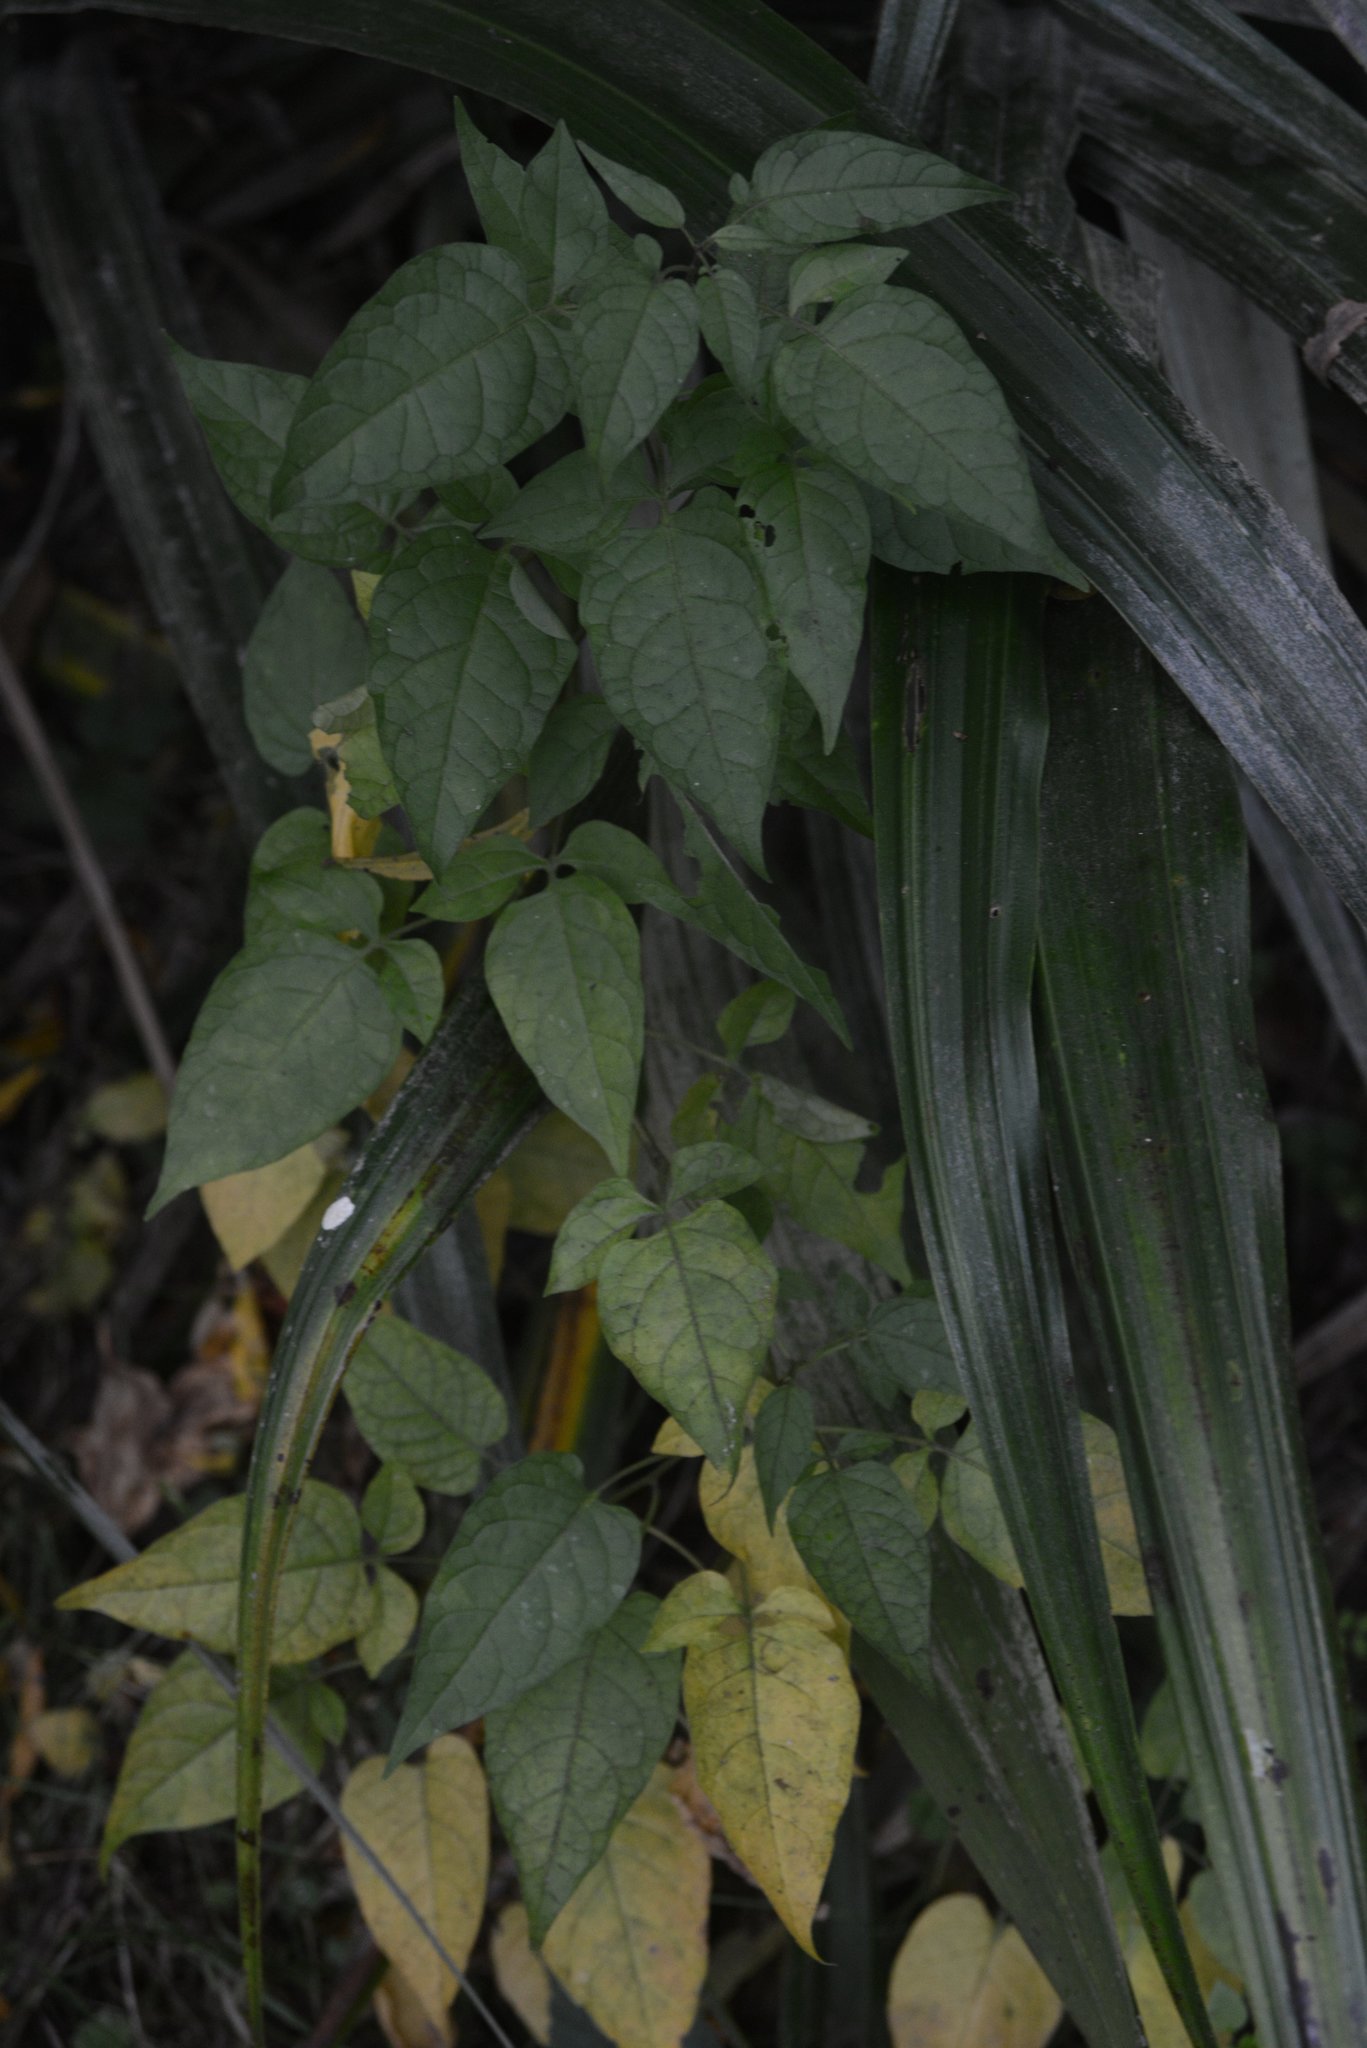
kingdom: Plantae
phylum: Tracheophyta
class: Magnoliopsida
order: Solanales
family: Solanaceae
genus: Solanum
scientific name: Solanum dulcamara
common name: Climbing nightshade
